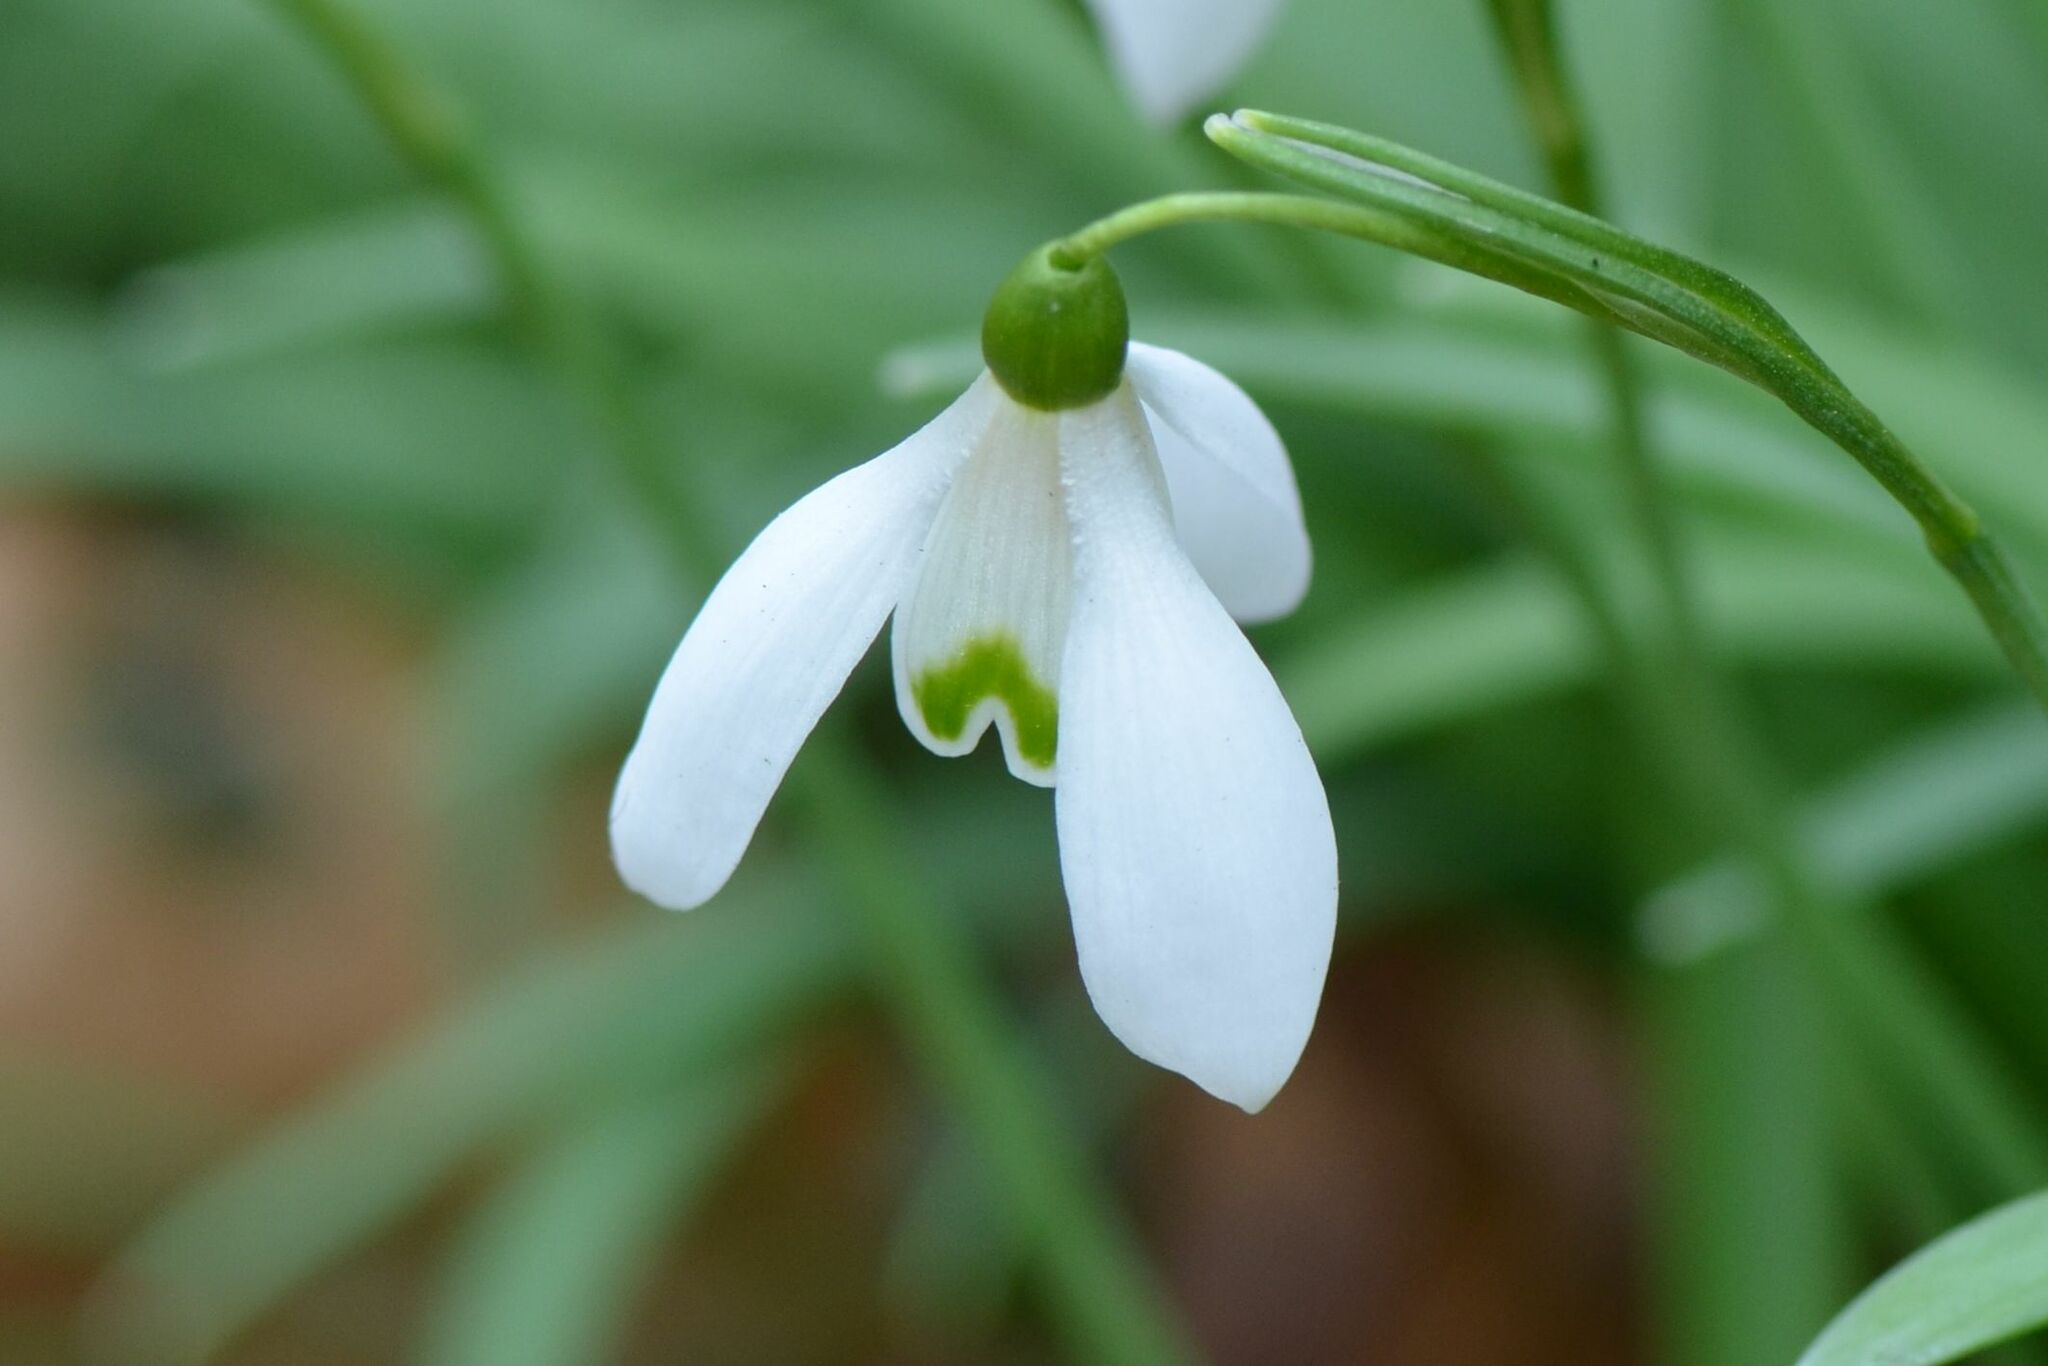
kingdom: Plantae
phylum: Tracheophyta
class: Liliopsida
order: Asparagales
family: Amaryllidaceae
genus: Galanthus
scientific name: Galanthus nivalis
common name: Snowdrop
